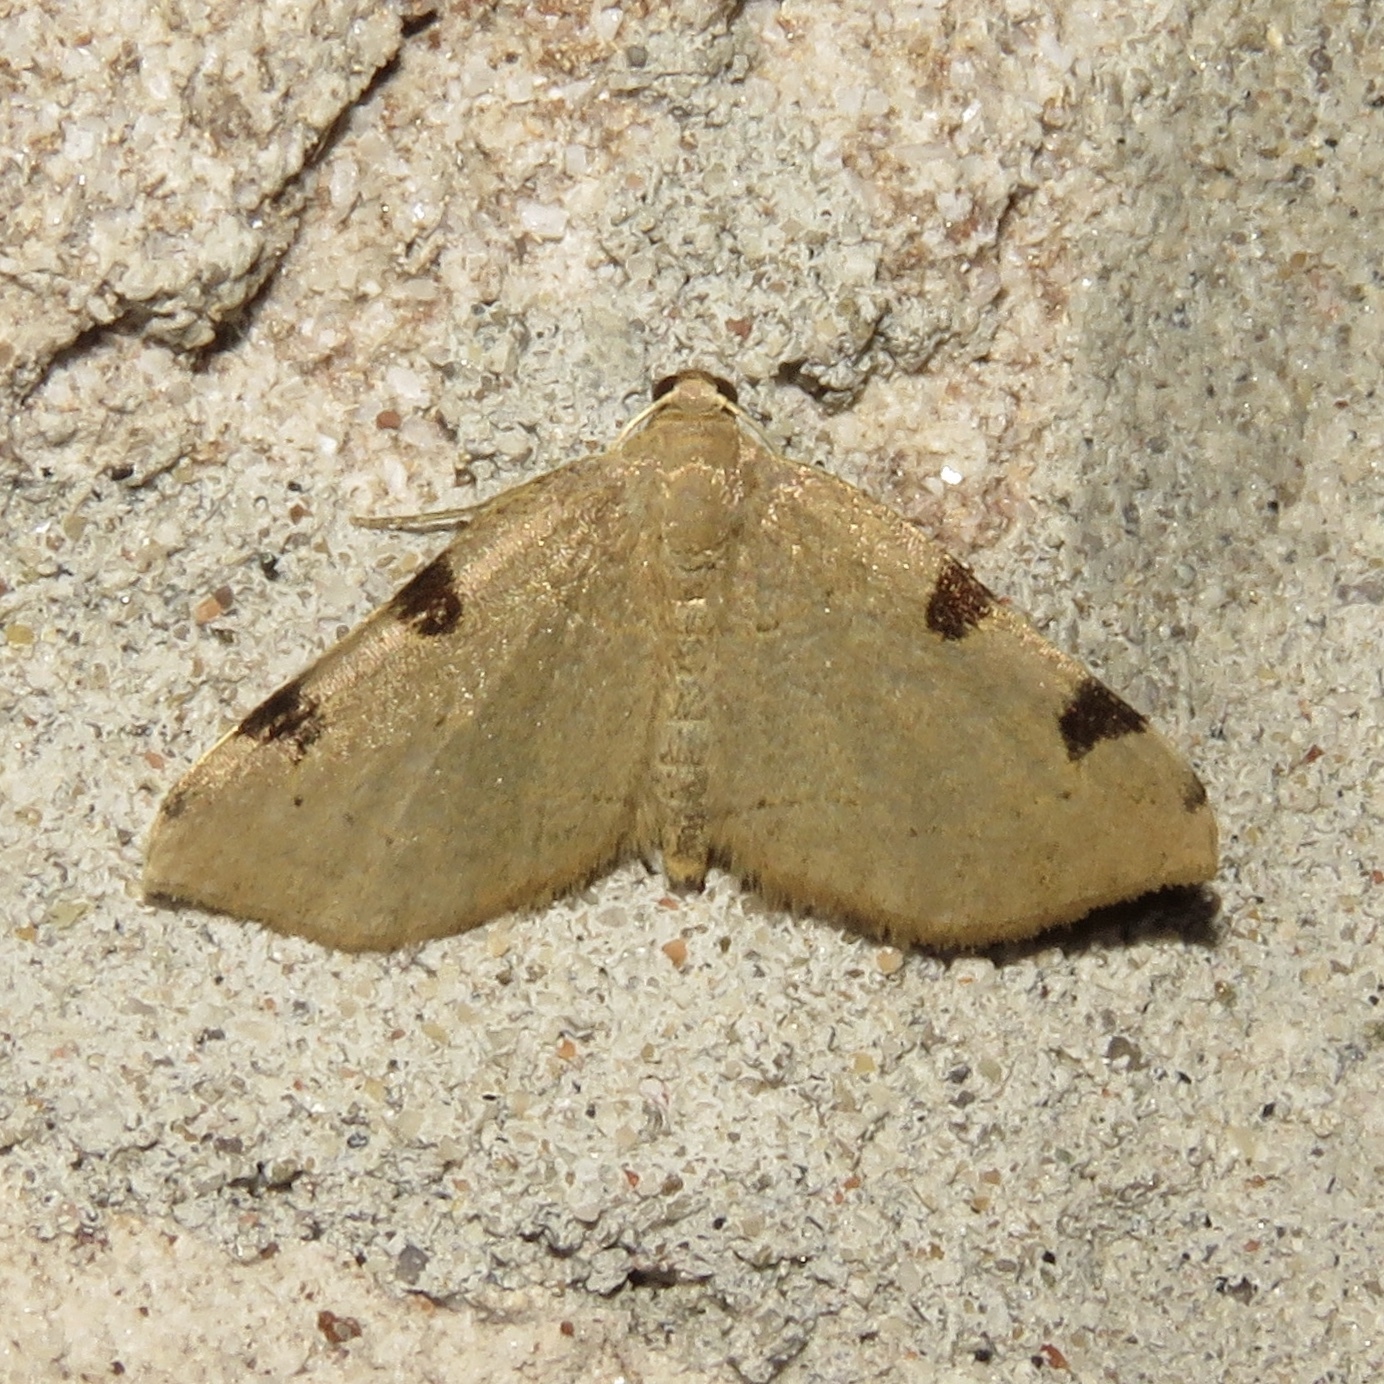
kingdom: Animalia
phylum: Arthropoda
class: Insecta
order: Lepidoptera
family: Geometridae
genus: Heterophleps
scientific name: Heterophleps triguttaria
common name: Three-spotted fillip
